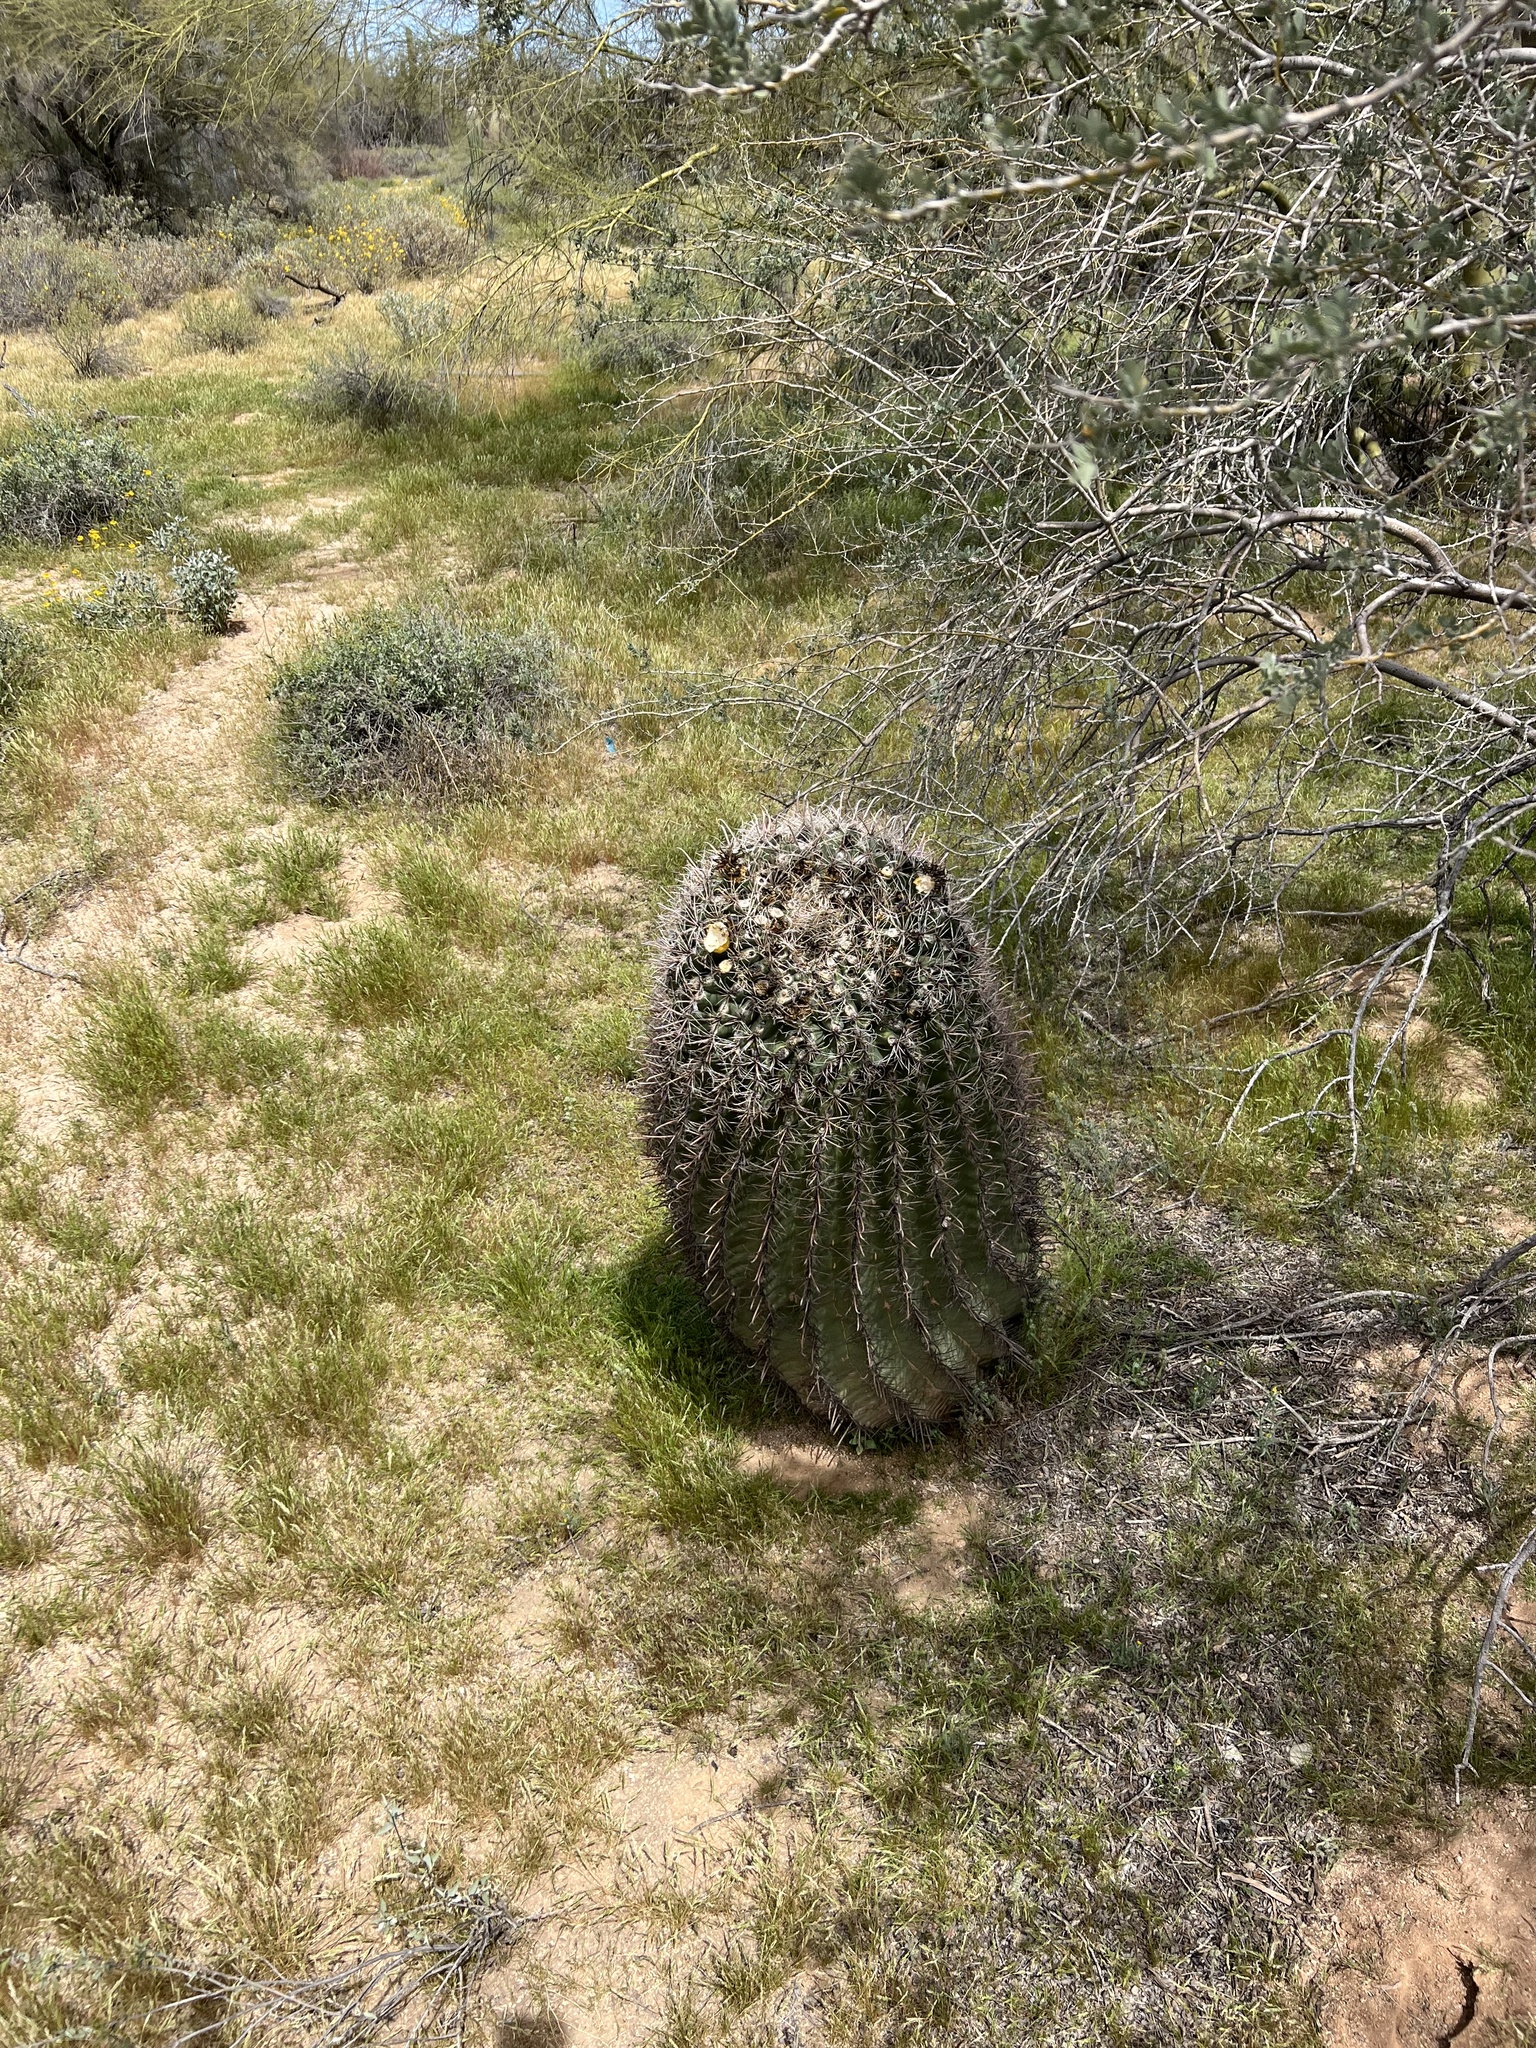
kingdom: Plantae
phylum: Tracheophyta
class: Magnoliopsida
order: Caryophyllales
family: Cactaceae
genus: Ferocactus
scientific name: Ferocactus wislizeni
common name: Candy barrel cactus
